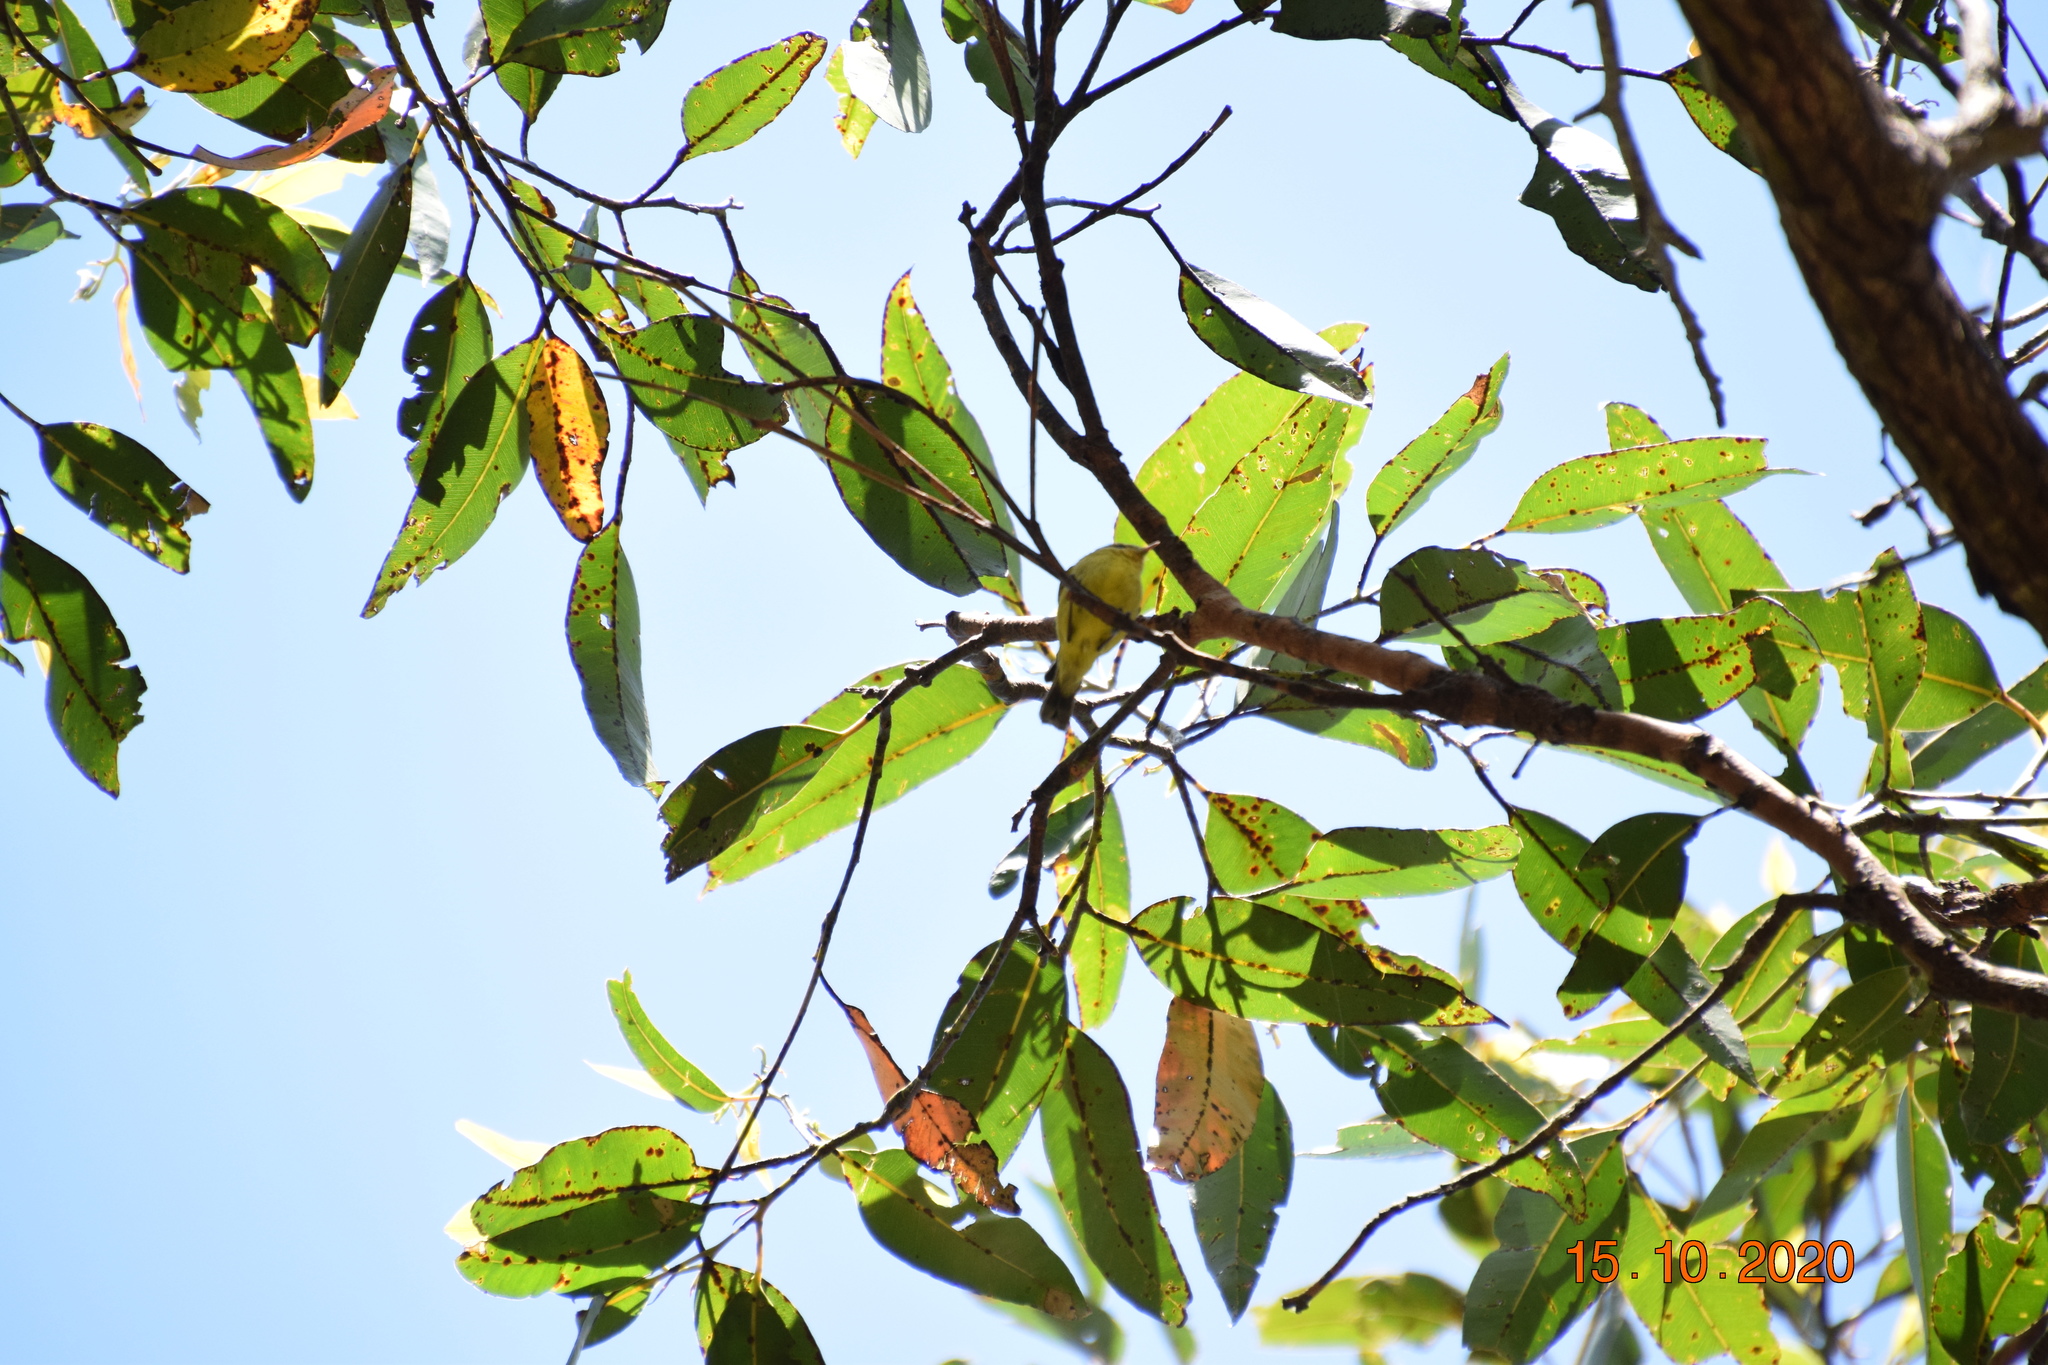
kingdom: Animalia
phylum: Chordata
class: Aves
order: Passeriformes
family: Acanthizidae
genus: Acanthiza
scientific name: Acanthiza nana
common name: Yellow thornbill
